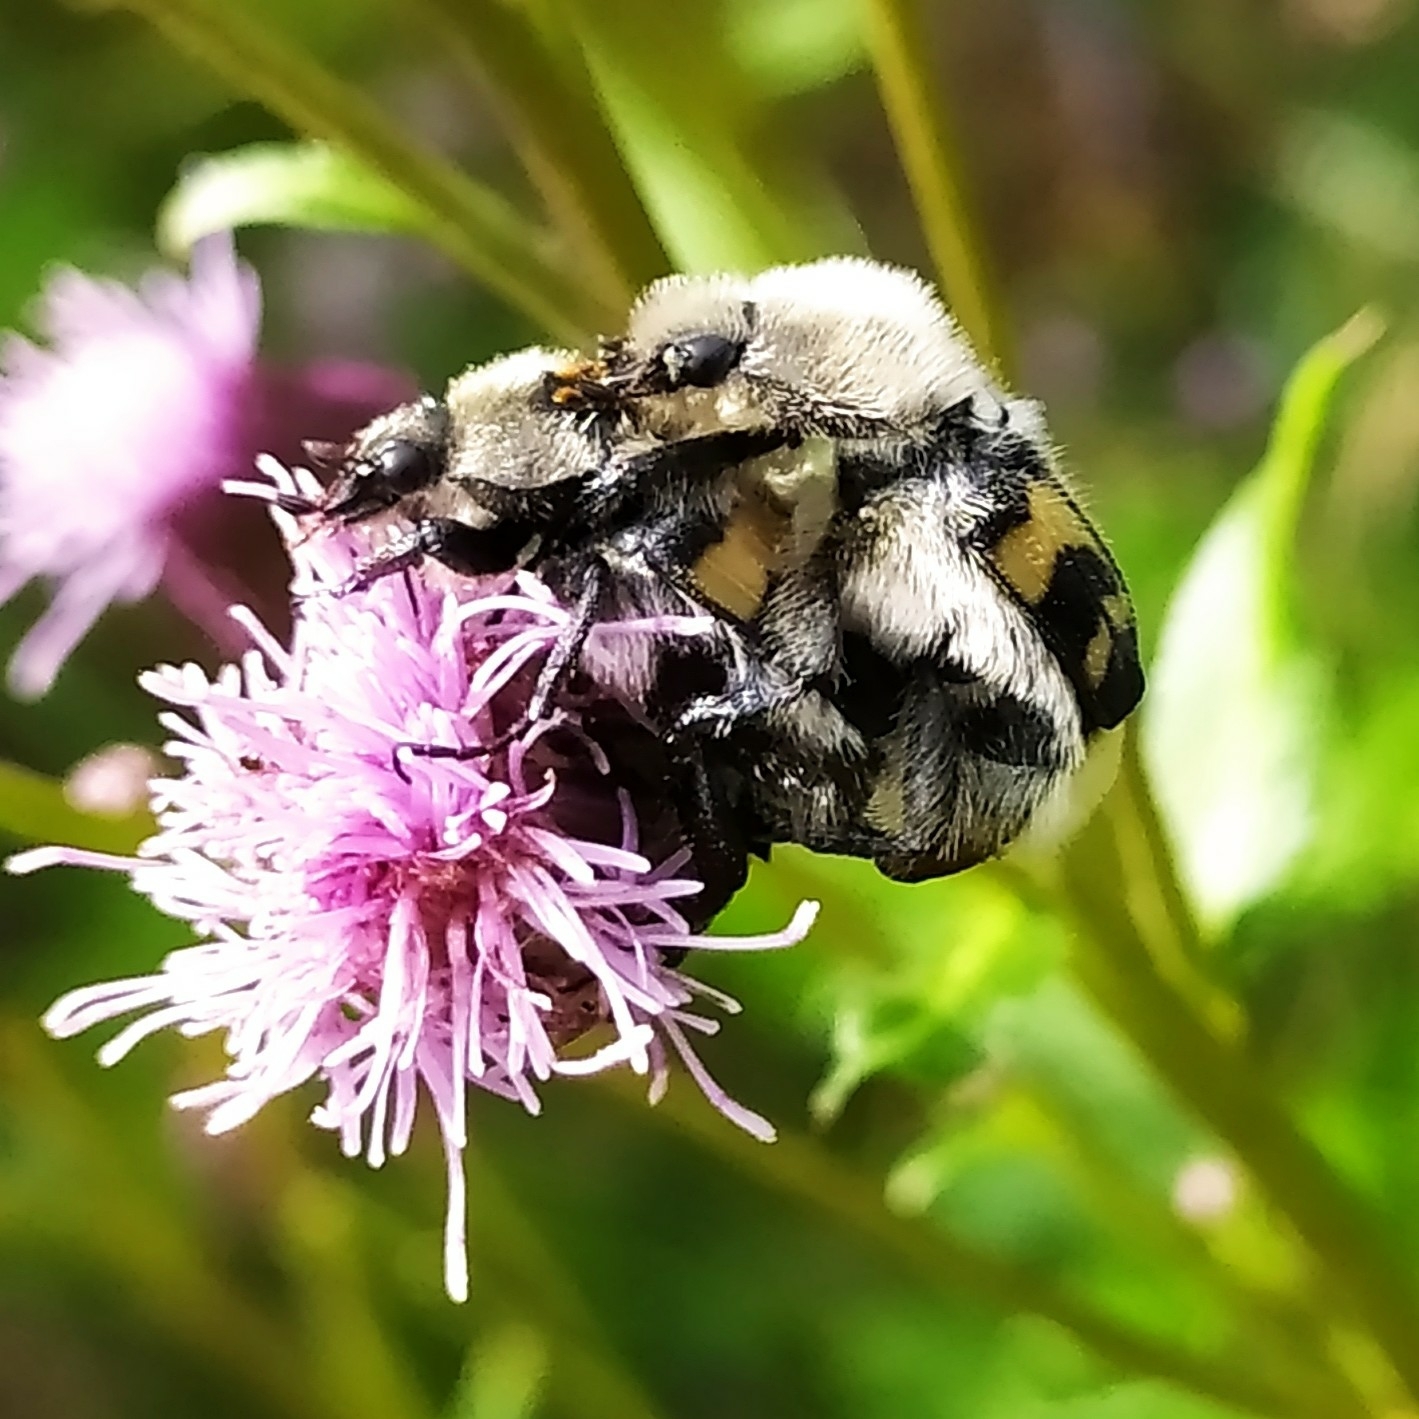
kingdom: Animalia
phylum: Arthropoda
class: Insecta
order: Coleoptera
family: Scarabaeidae
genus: Trichius
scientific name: Trichius fasciatus
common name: Bee beetle
